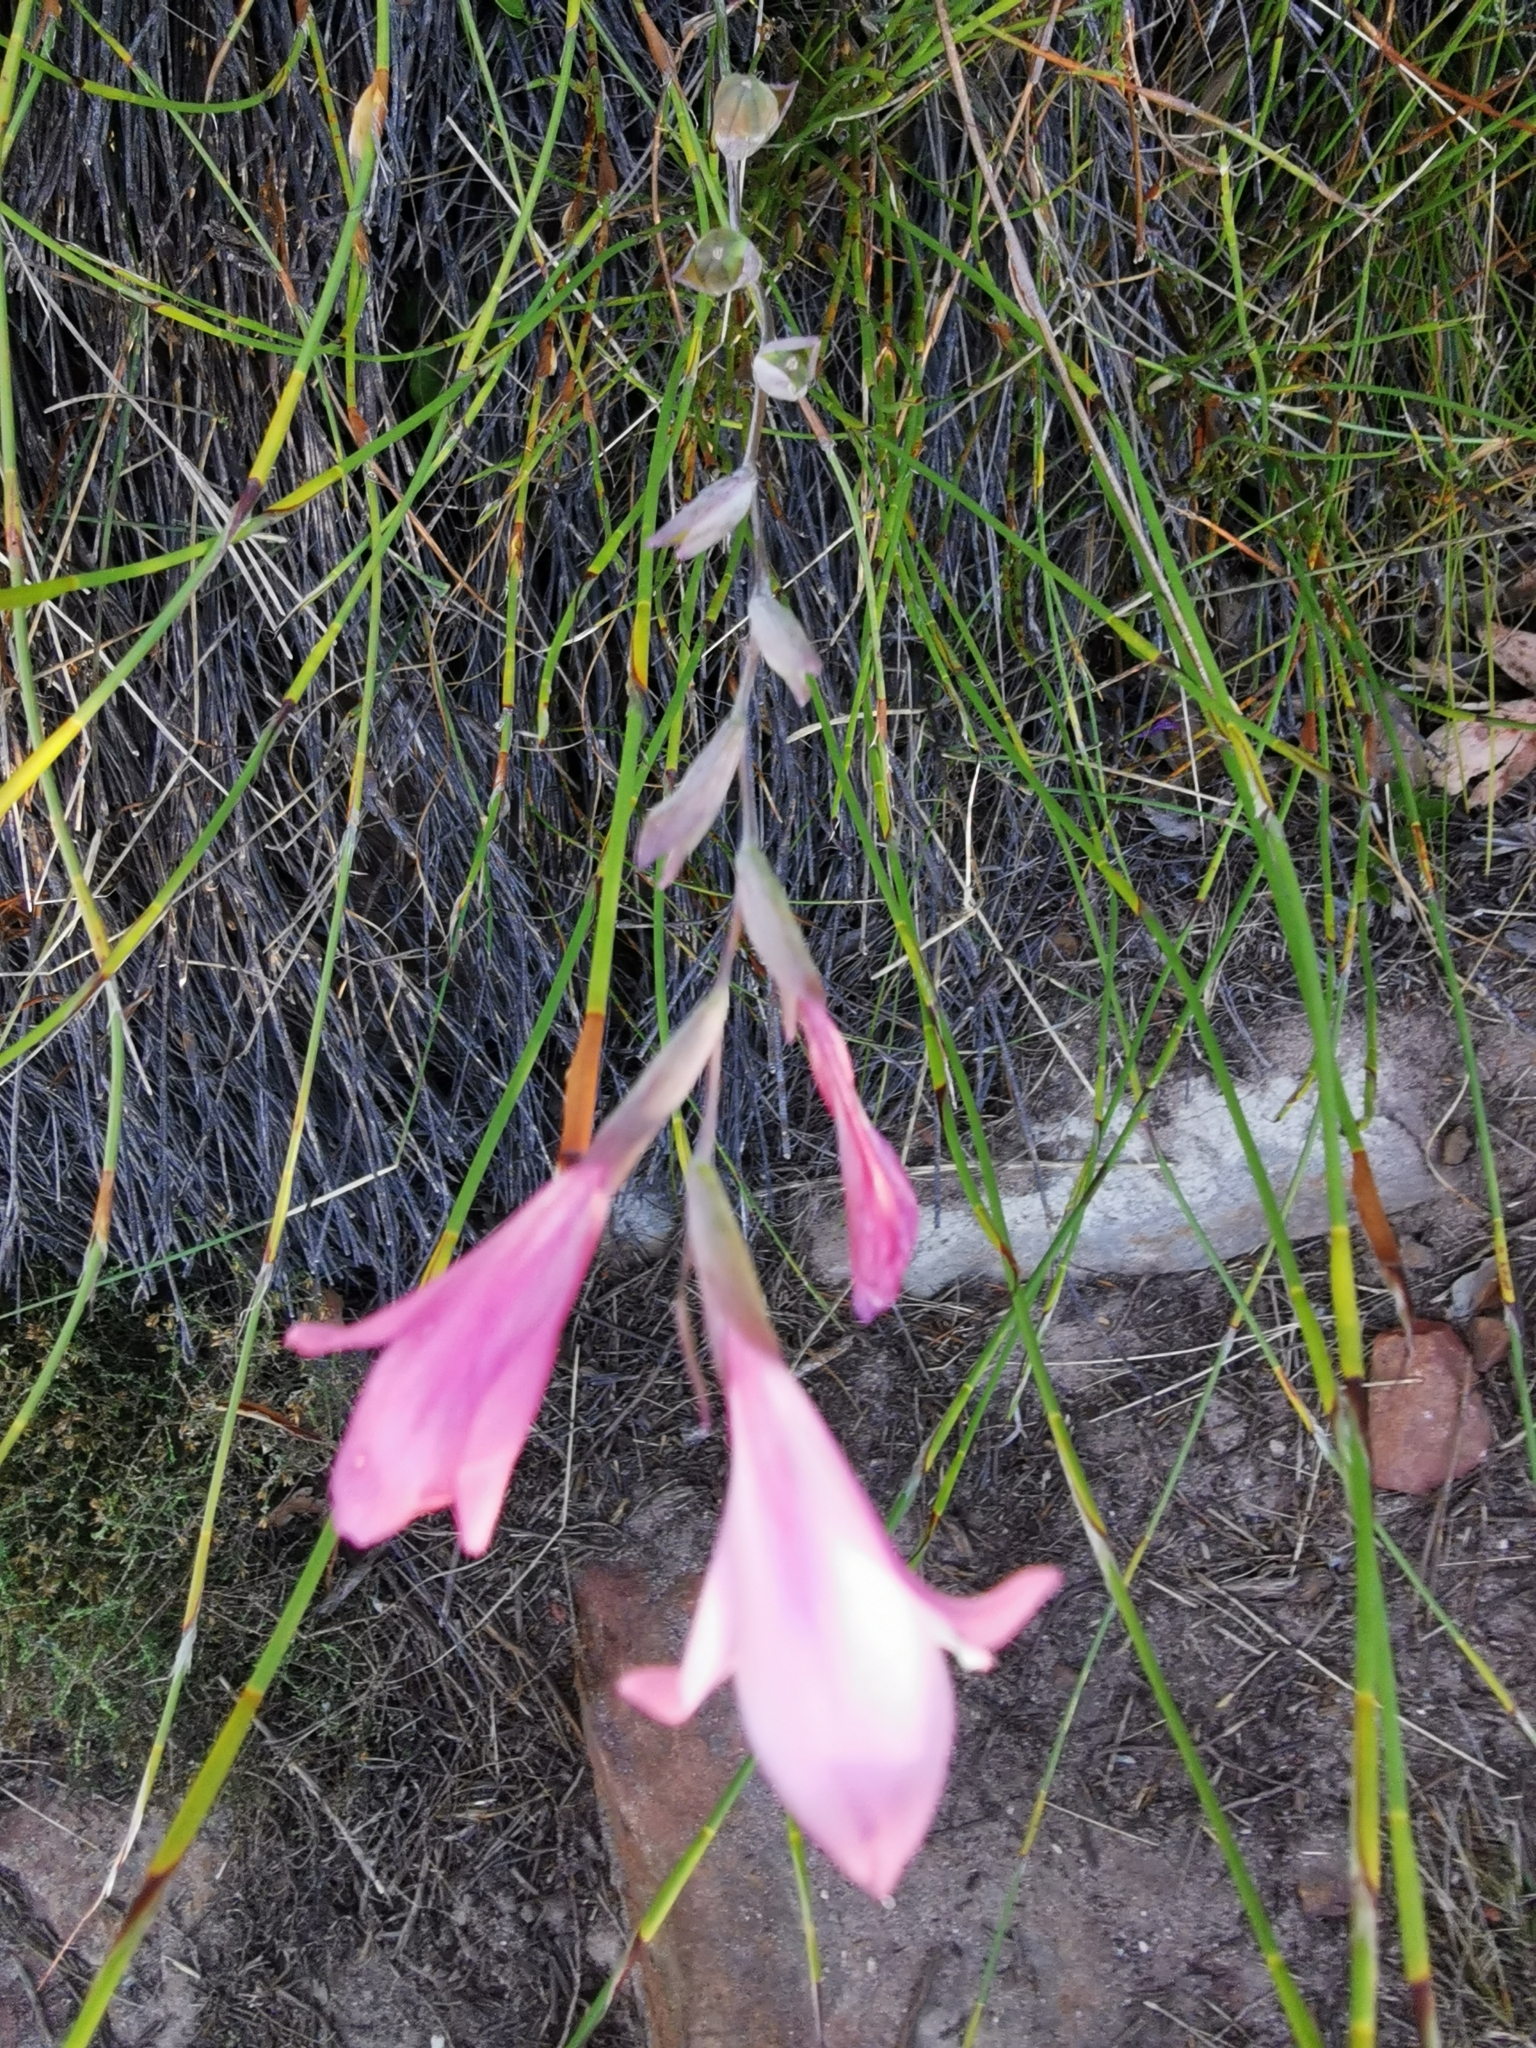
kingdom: Plantae
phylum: Tracheophyta
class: Liliopsida
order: Asparagales
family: Iridaceae
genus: Gladiolus
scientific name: Gladiolus brevifolius
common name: March pypie
